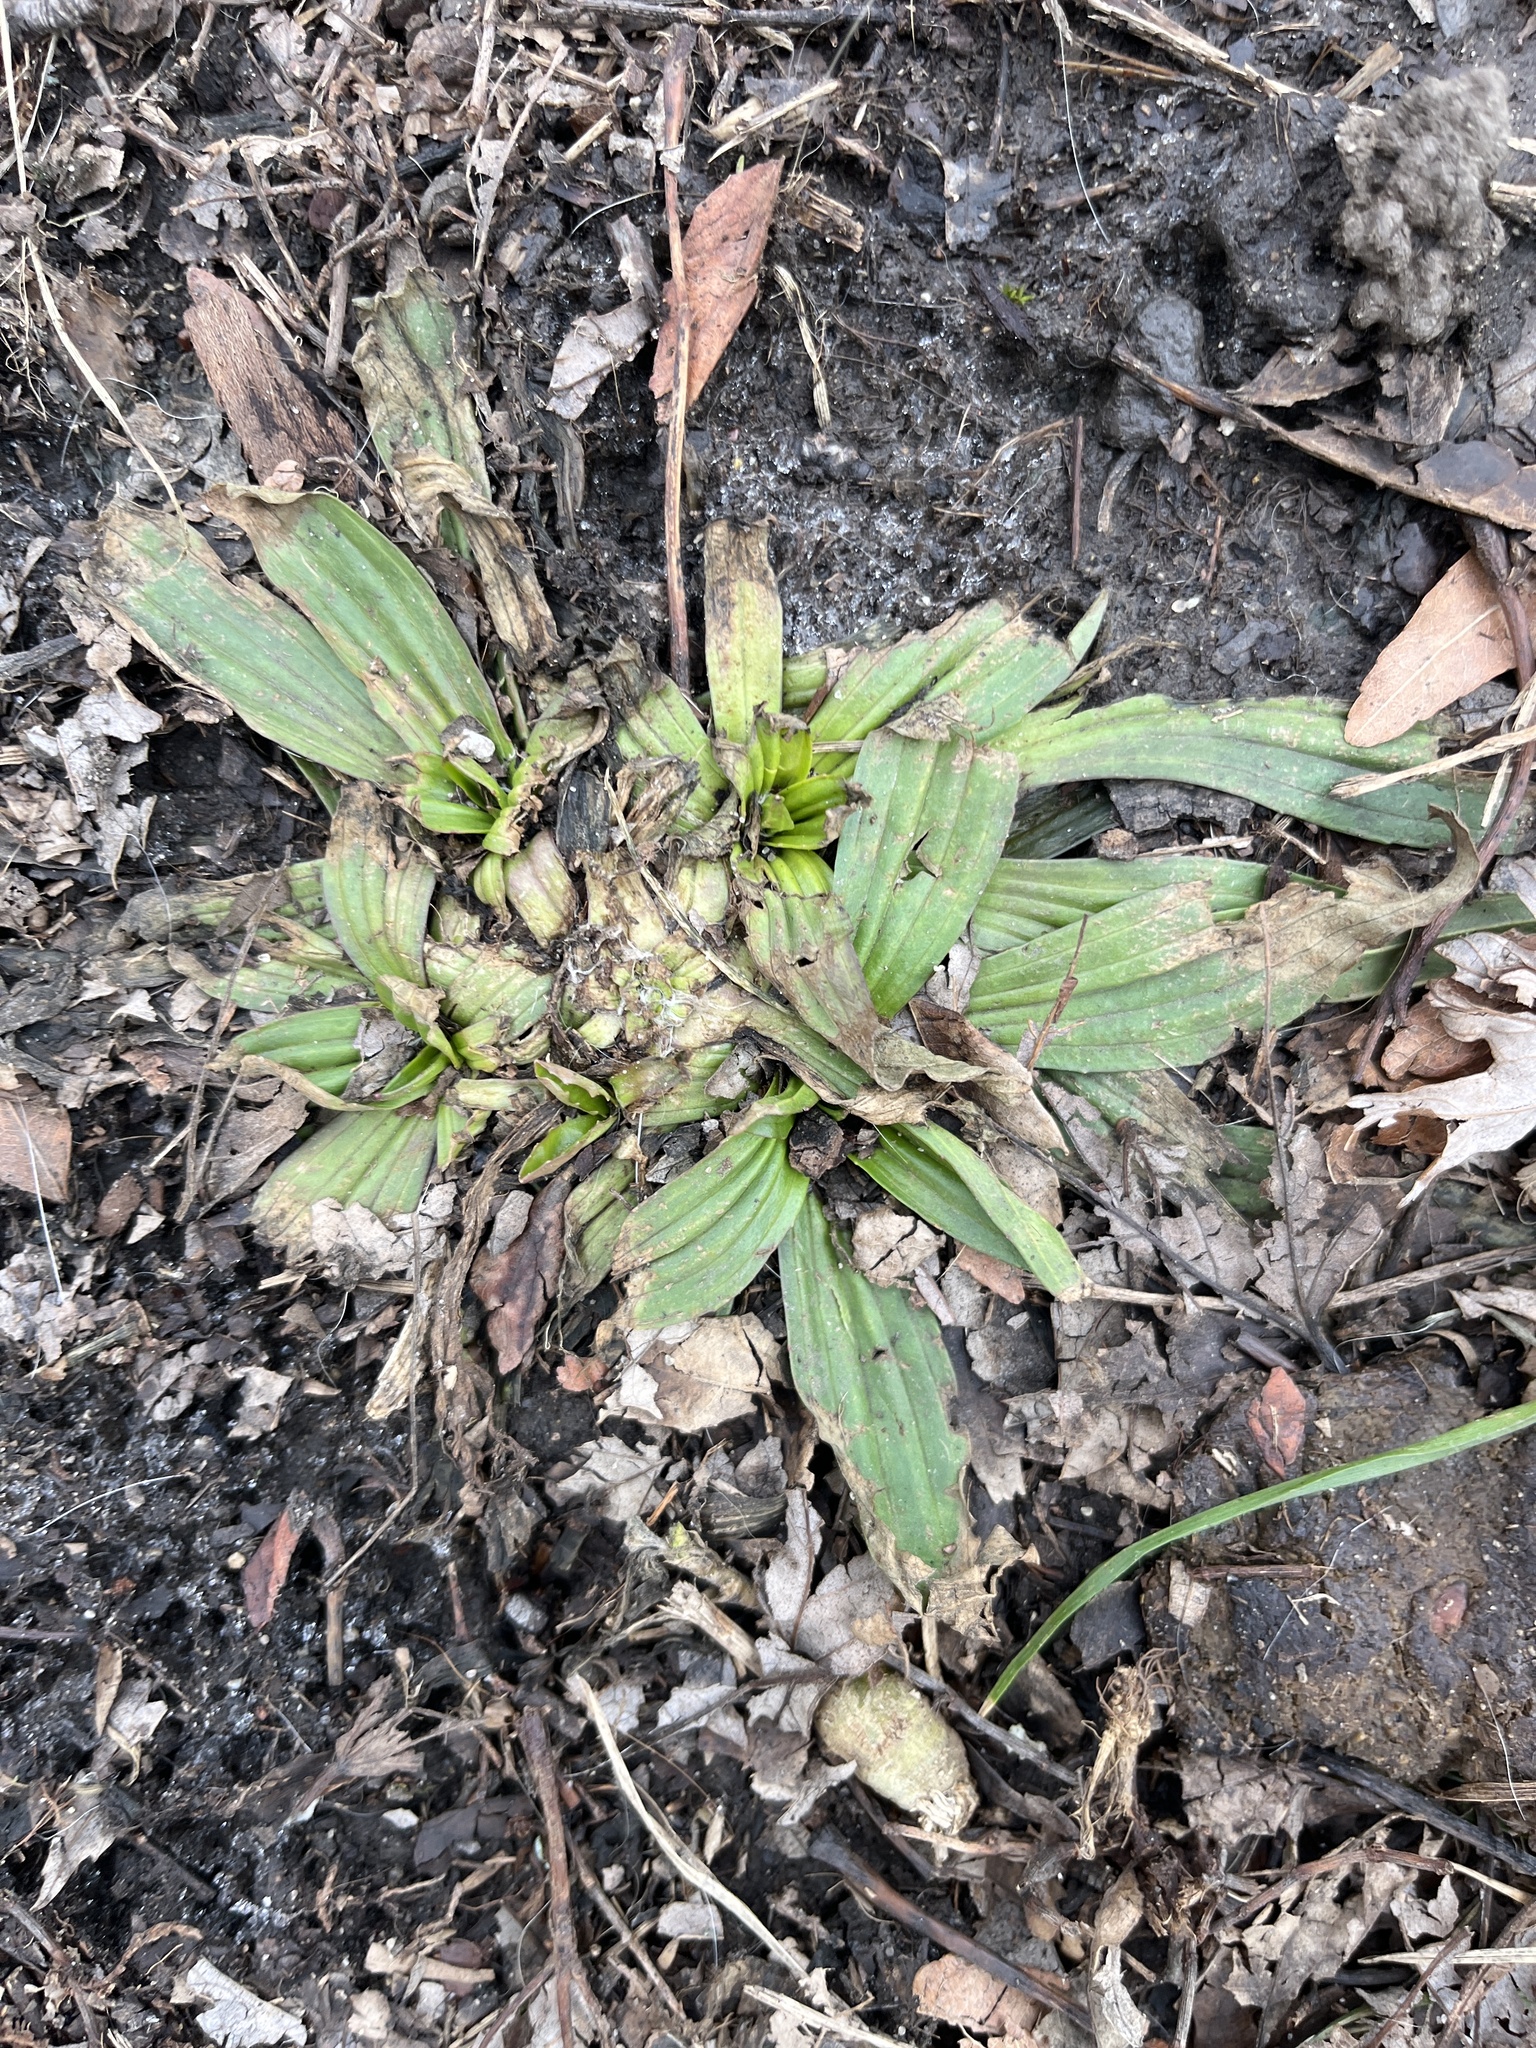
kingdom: Plantae
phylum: Tracheophyta
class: Magnoliopsida
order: Lamiales
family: Plantaginaceae
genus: Plantago
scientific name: Plantago lanceolata
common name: Ribwort plantain
